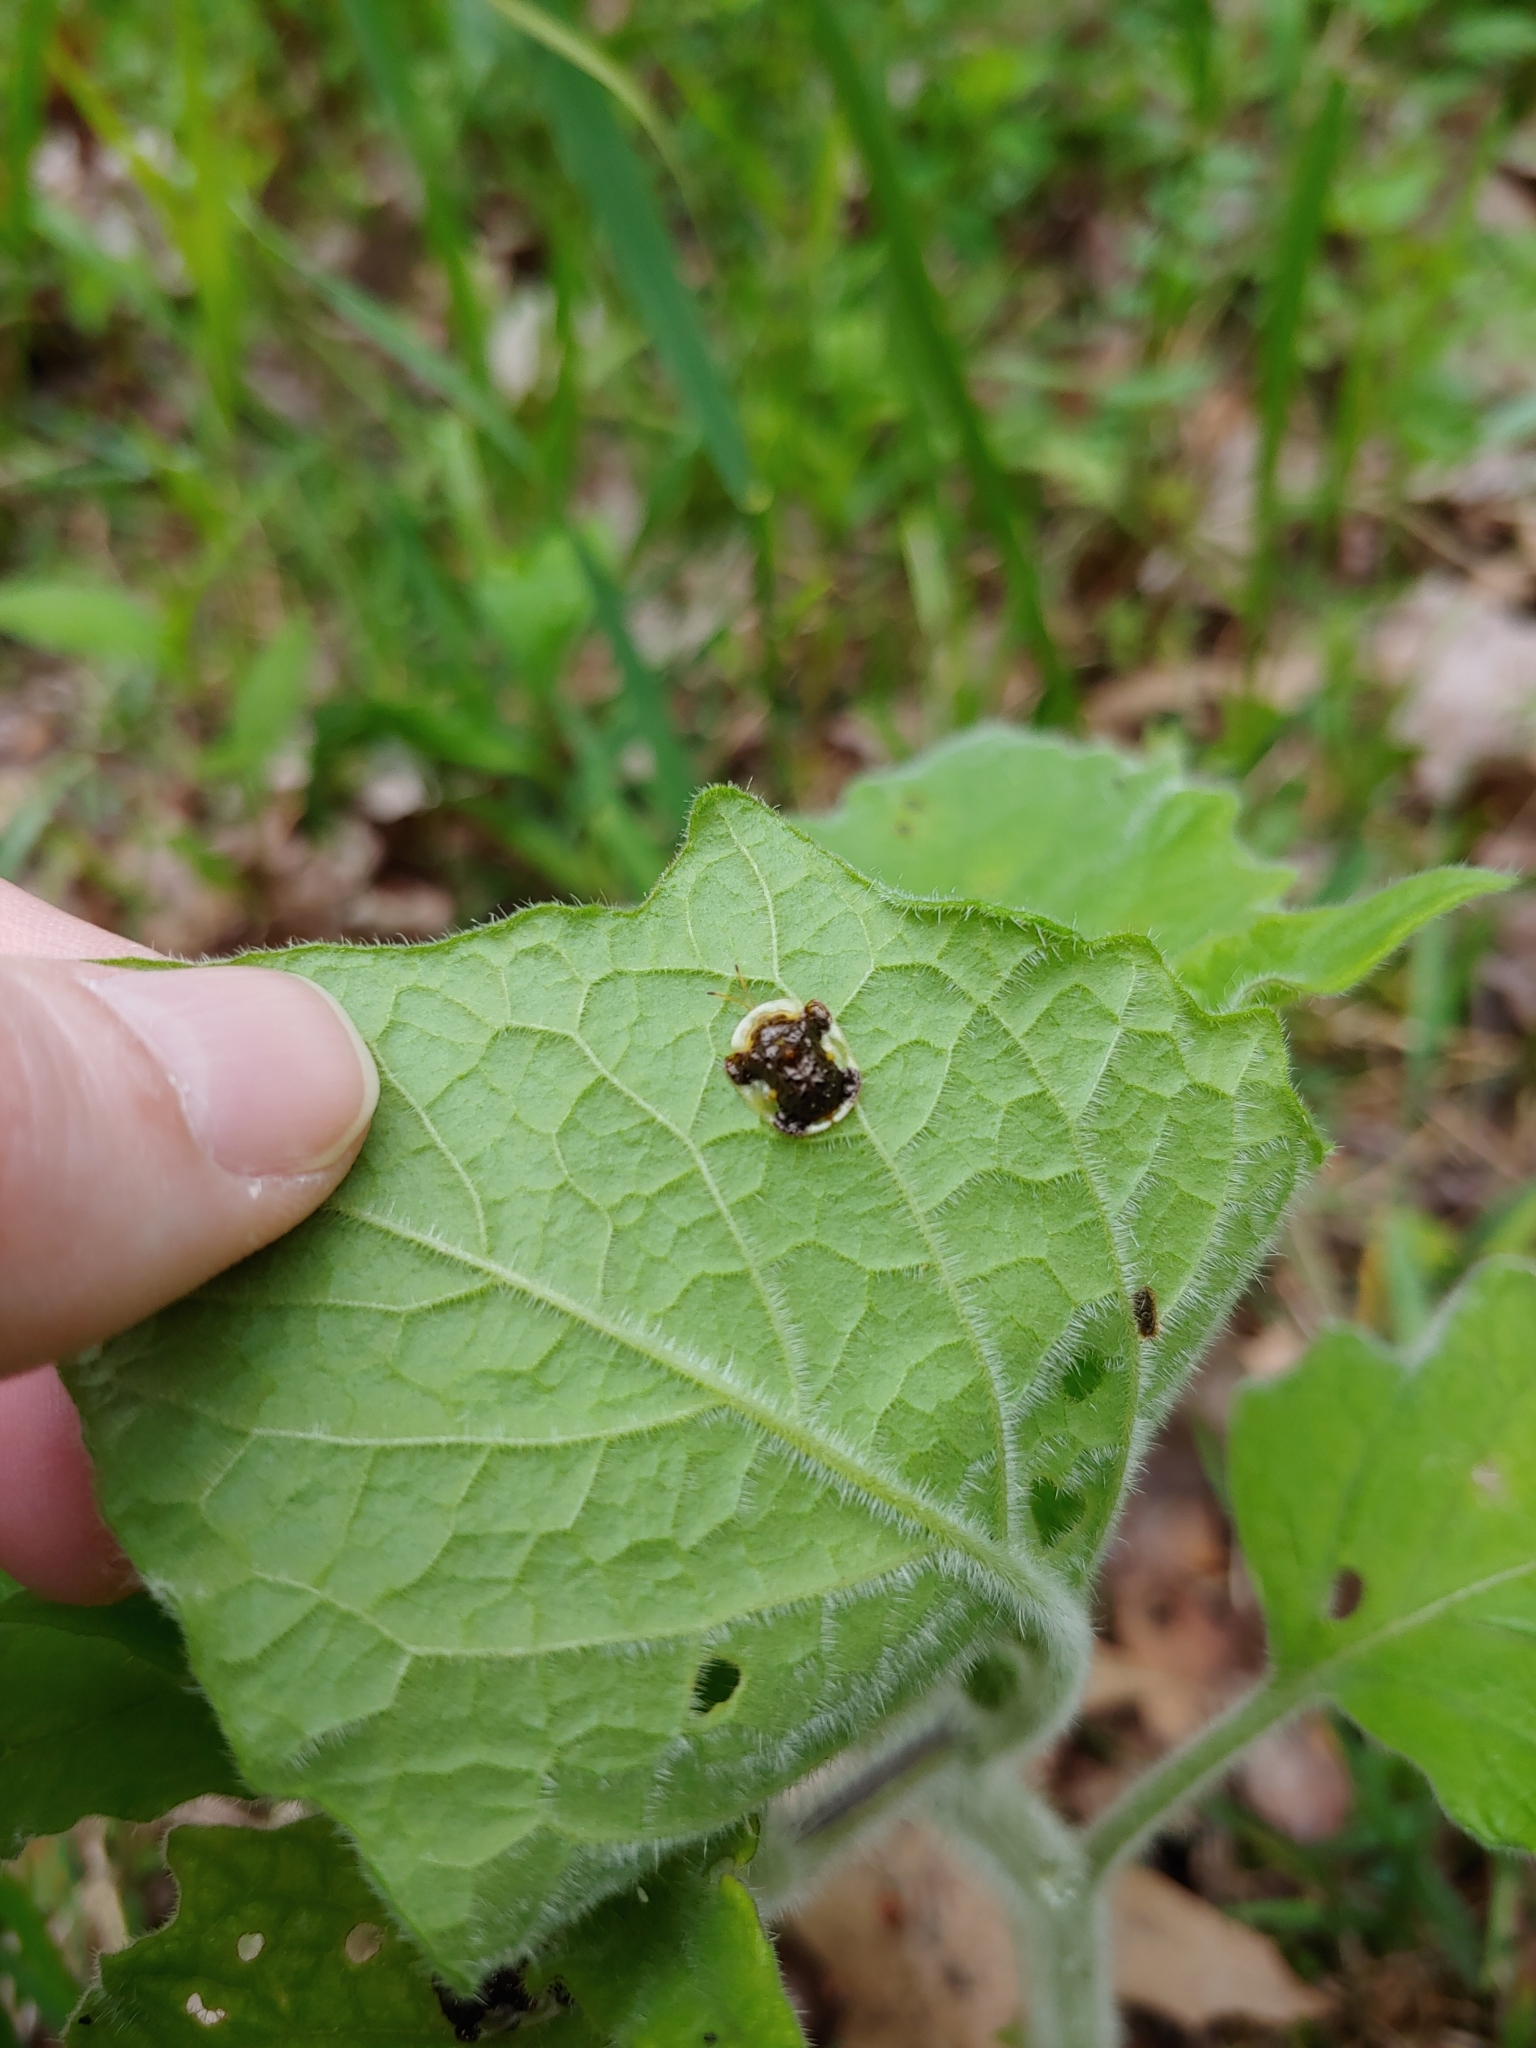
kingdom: Animalia
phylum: Arthropoda
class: Insecta
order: Coleoptera
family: Chrysomelidae
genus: Helocassis
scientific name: Helocassis clavata
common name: Clavate tortoise beetle
